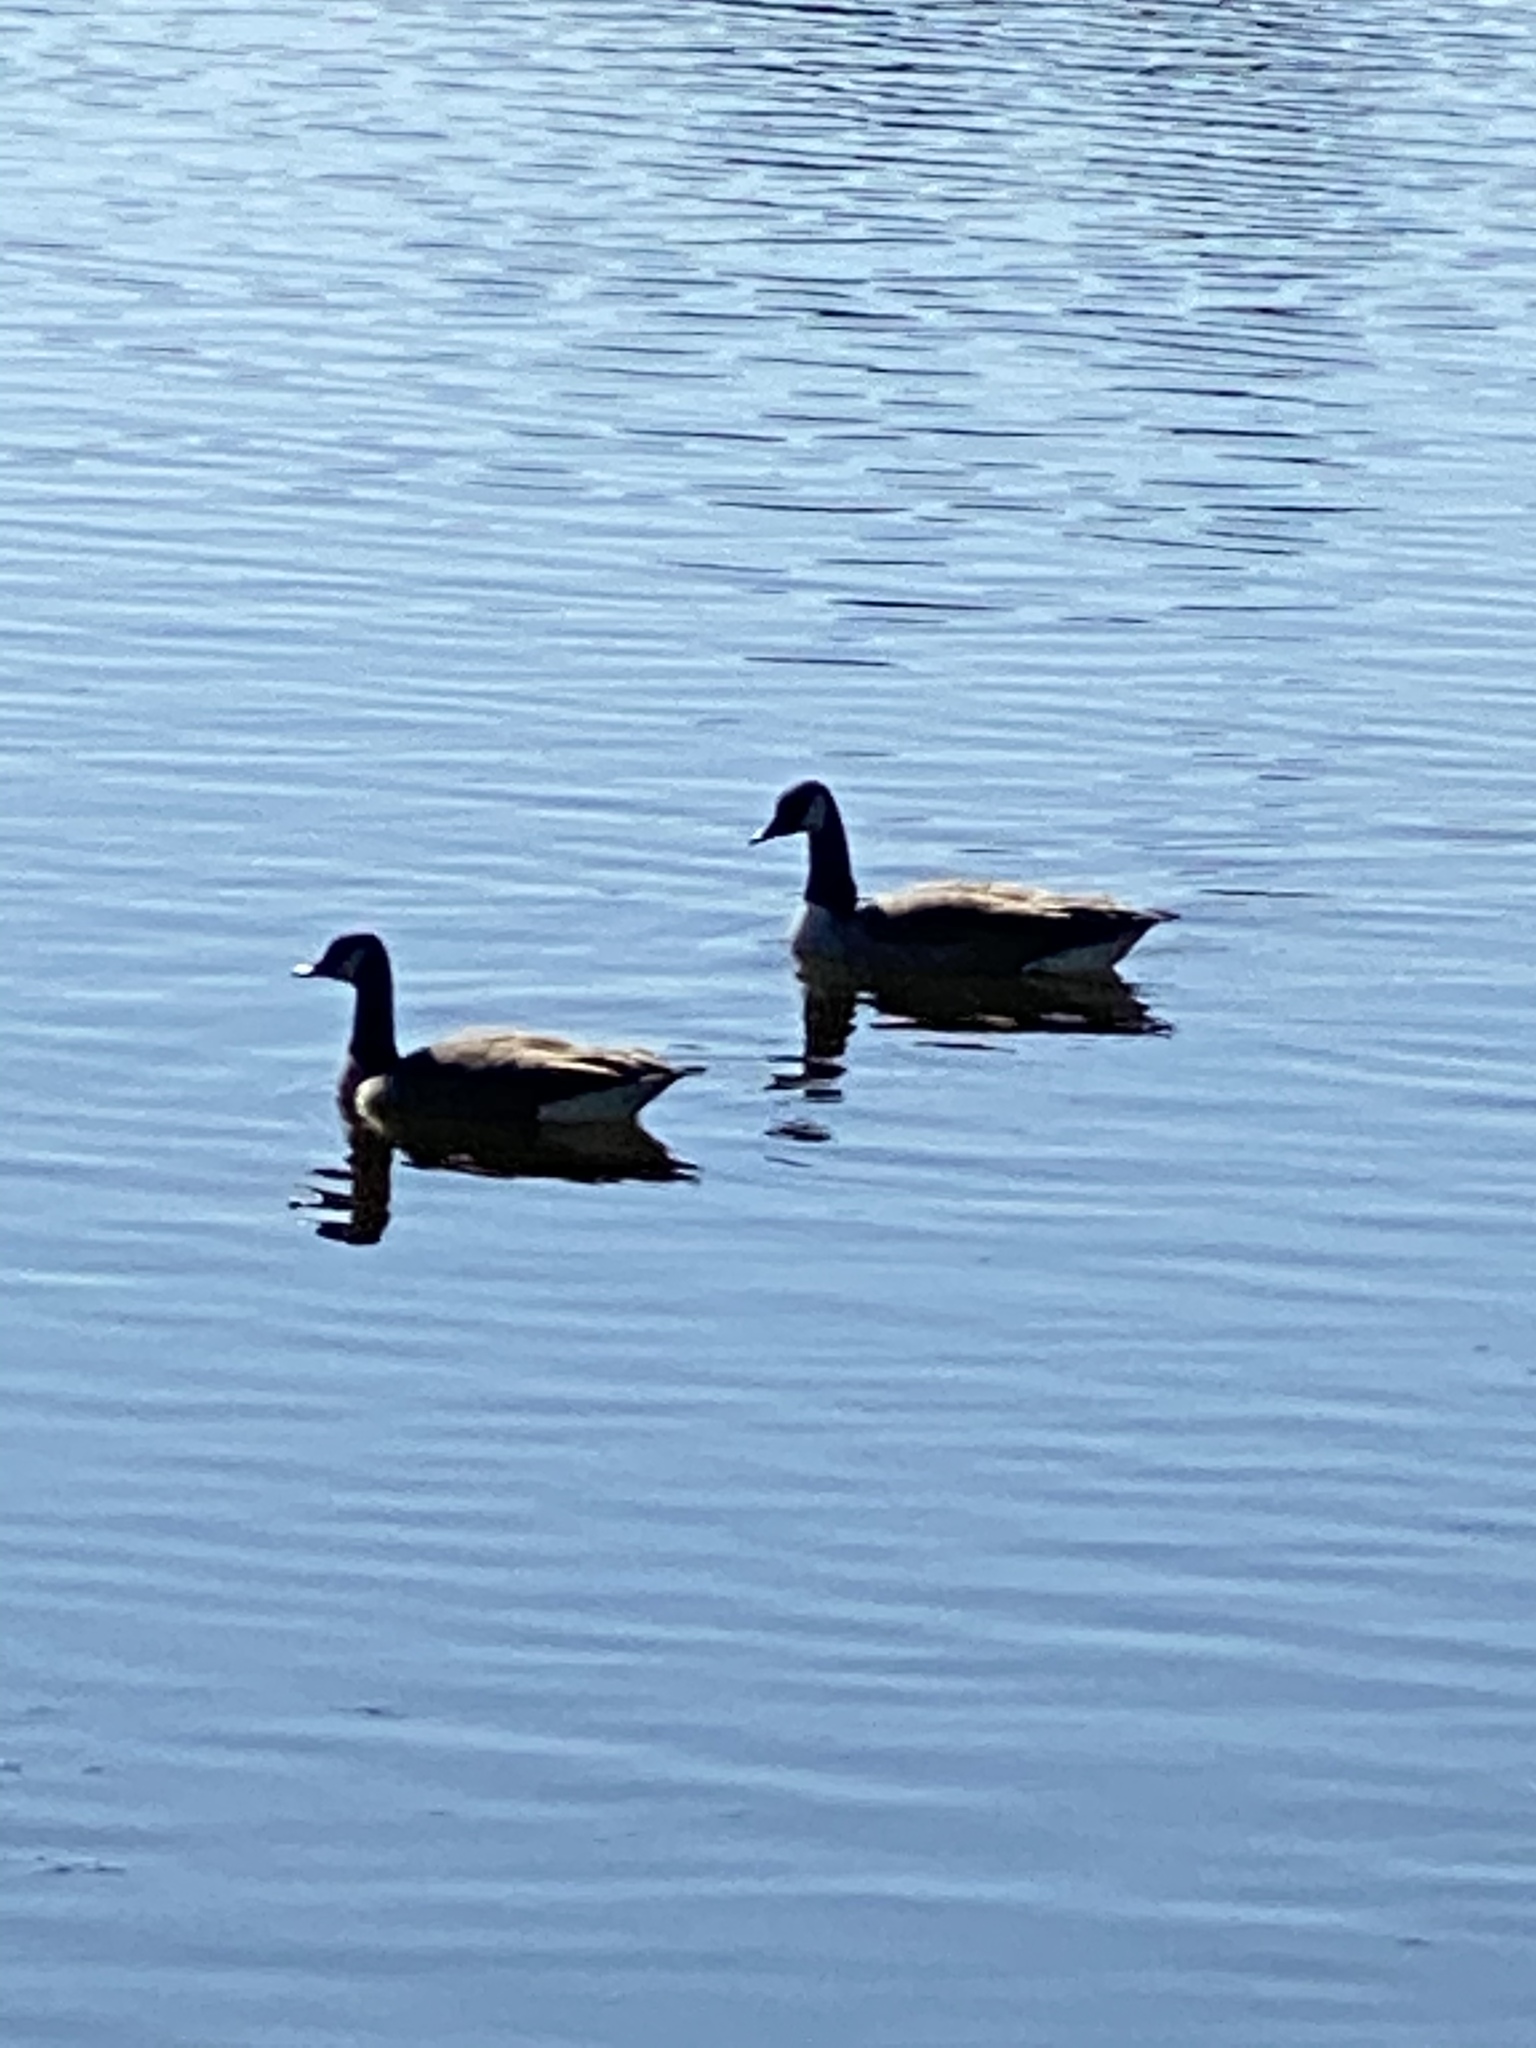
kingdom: Animalia
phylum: Chordata
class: Aves
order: Anseriformes
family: Anatidae
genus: Branta
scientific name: Branta canadensis
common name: Canada goose
